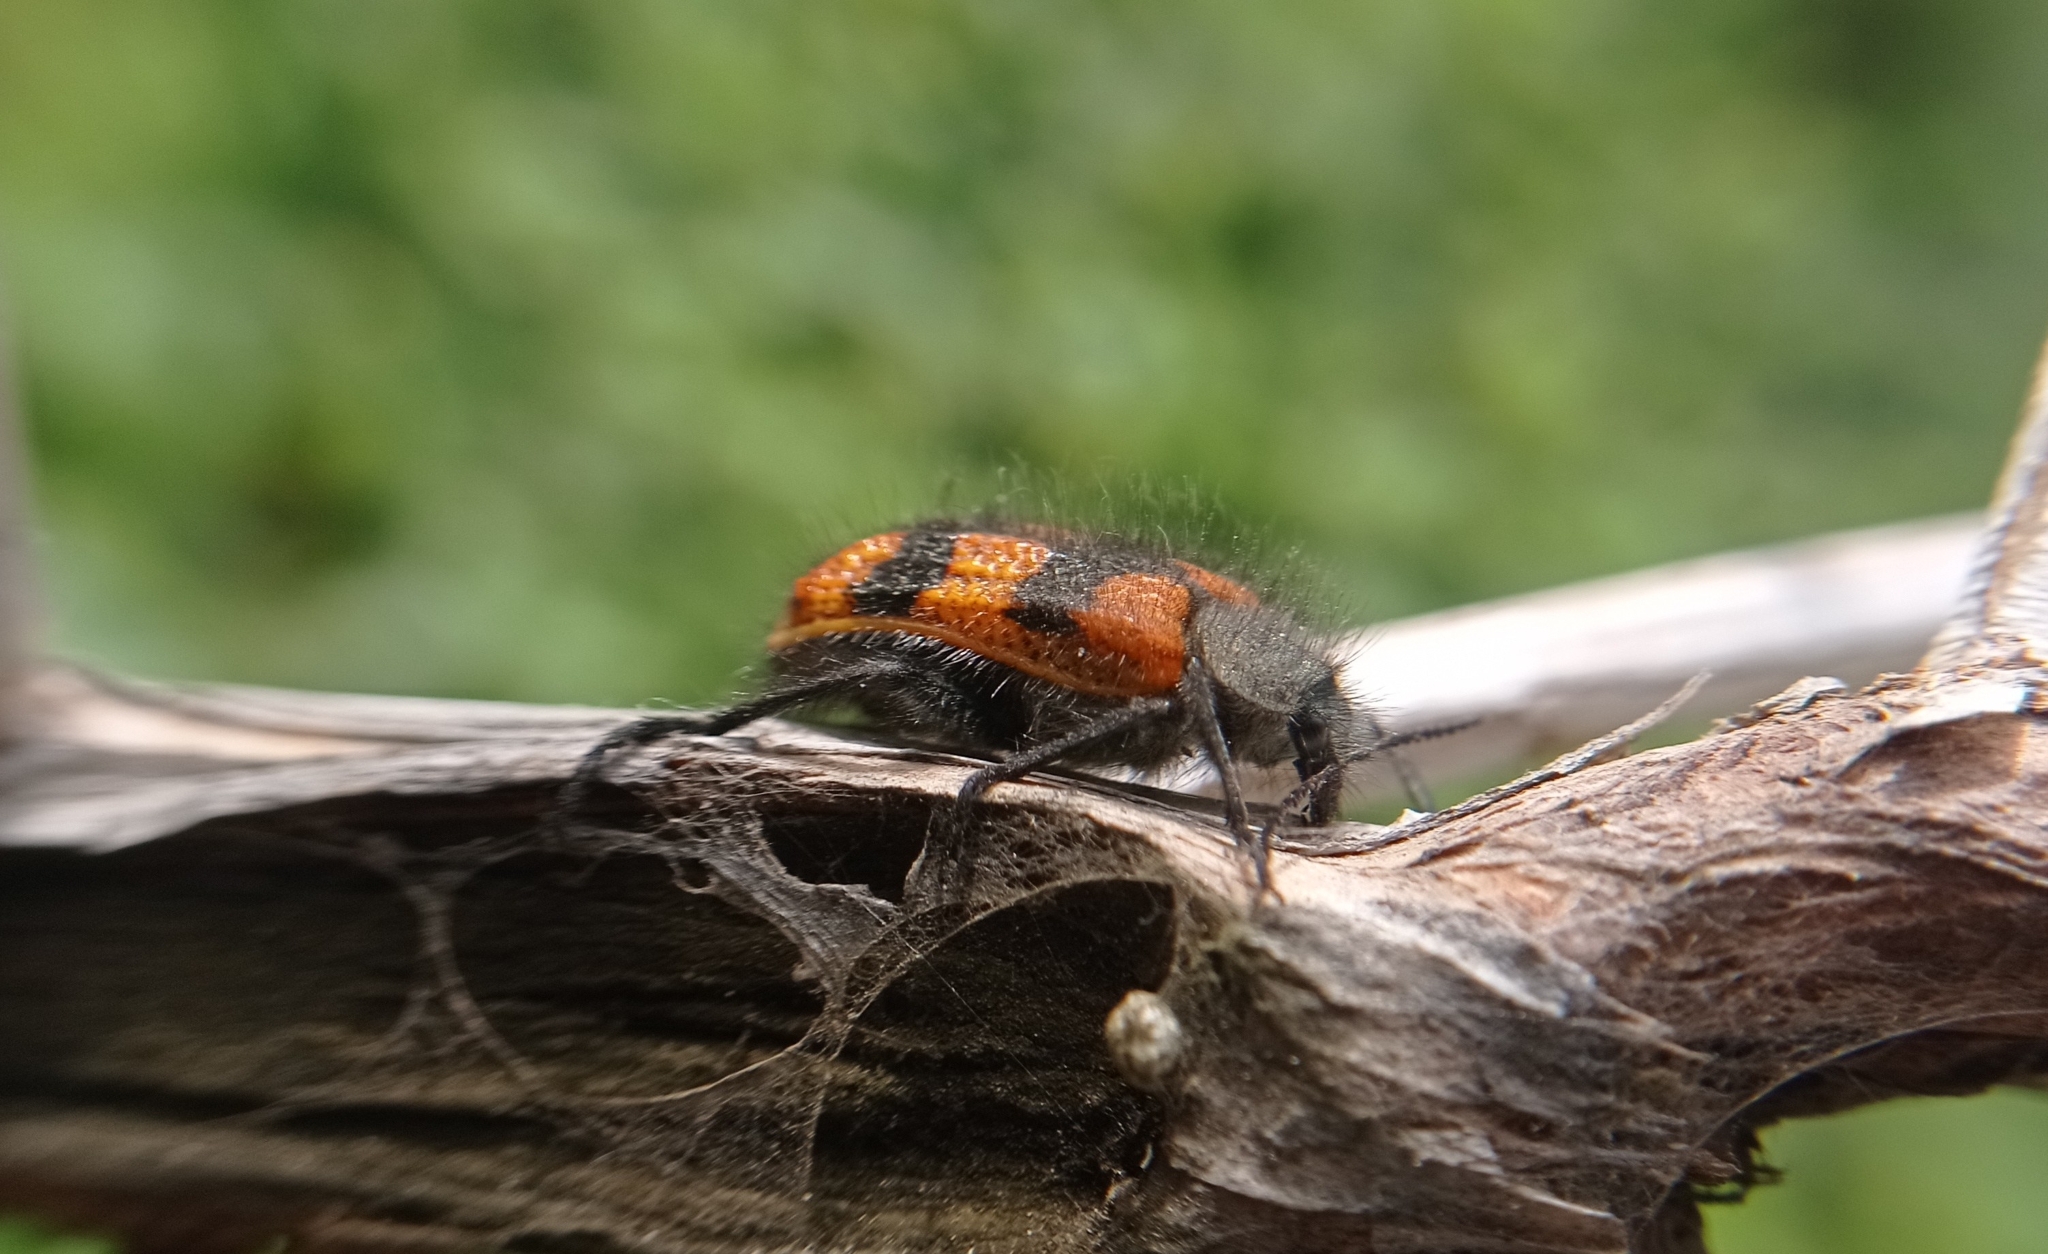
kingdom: Animalia
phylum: Arthropoda
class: Insecta
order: Coleoptera
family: Melyridae
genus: Astylus
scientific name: Astylus
